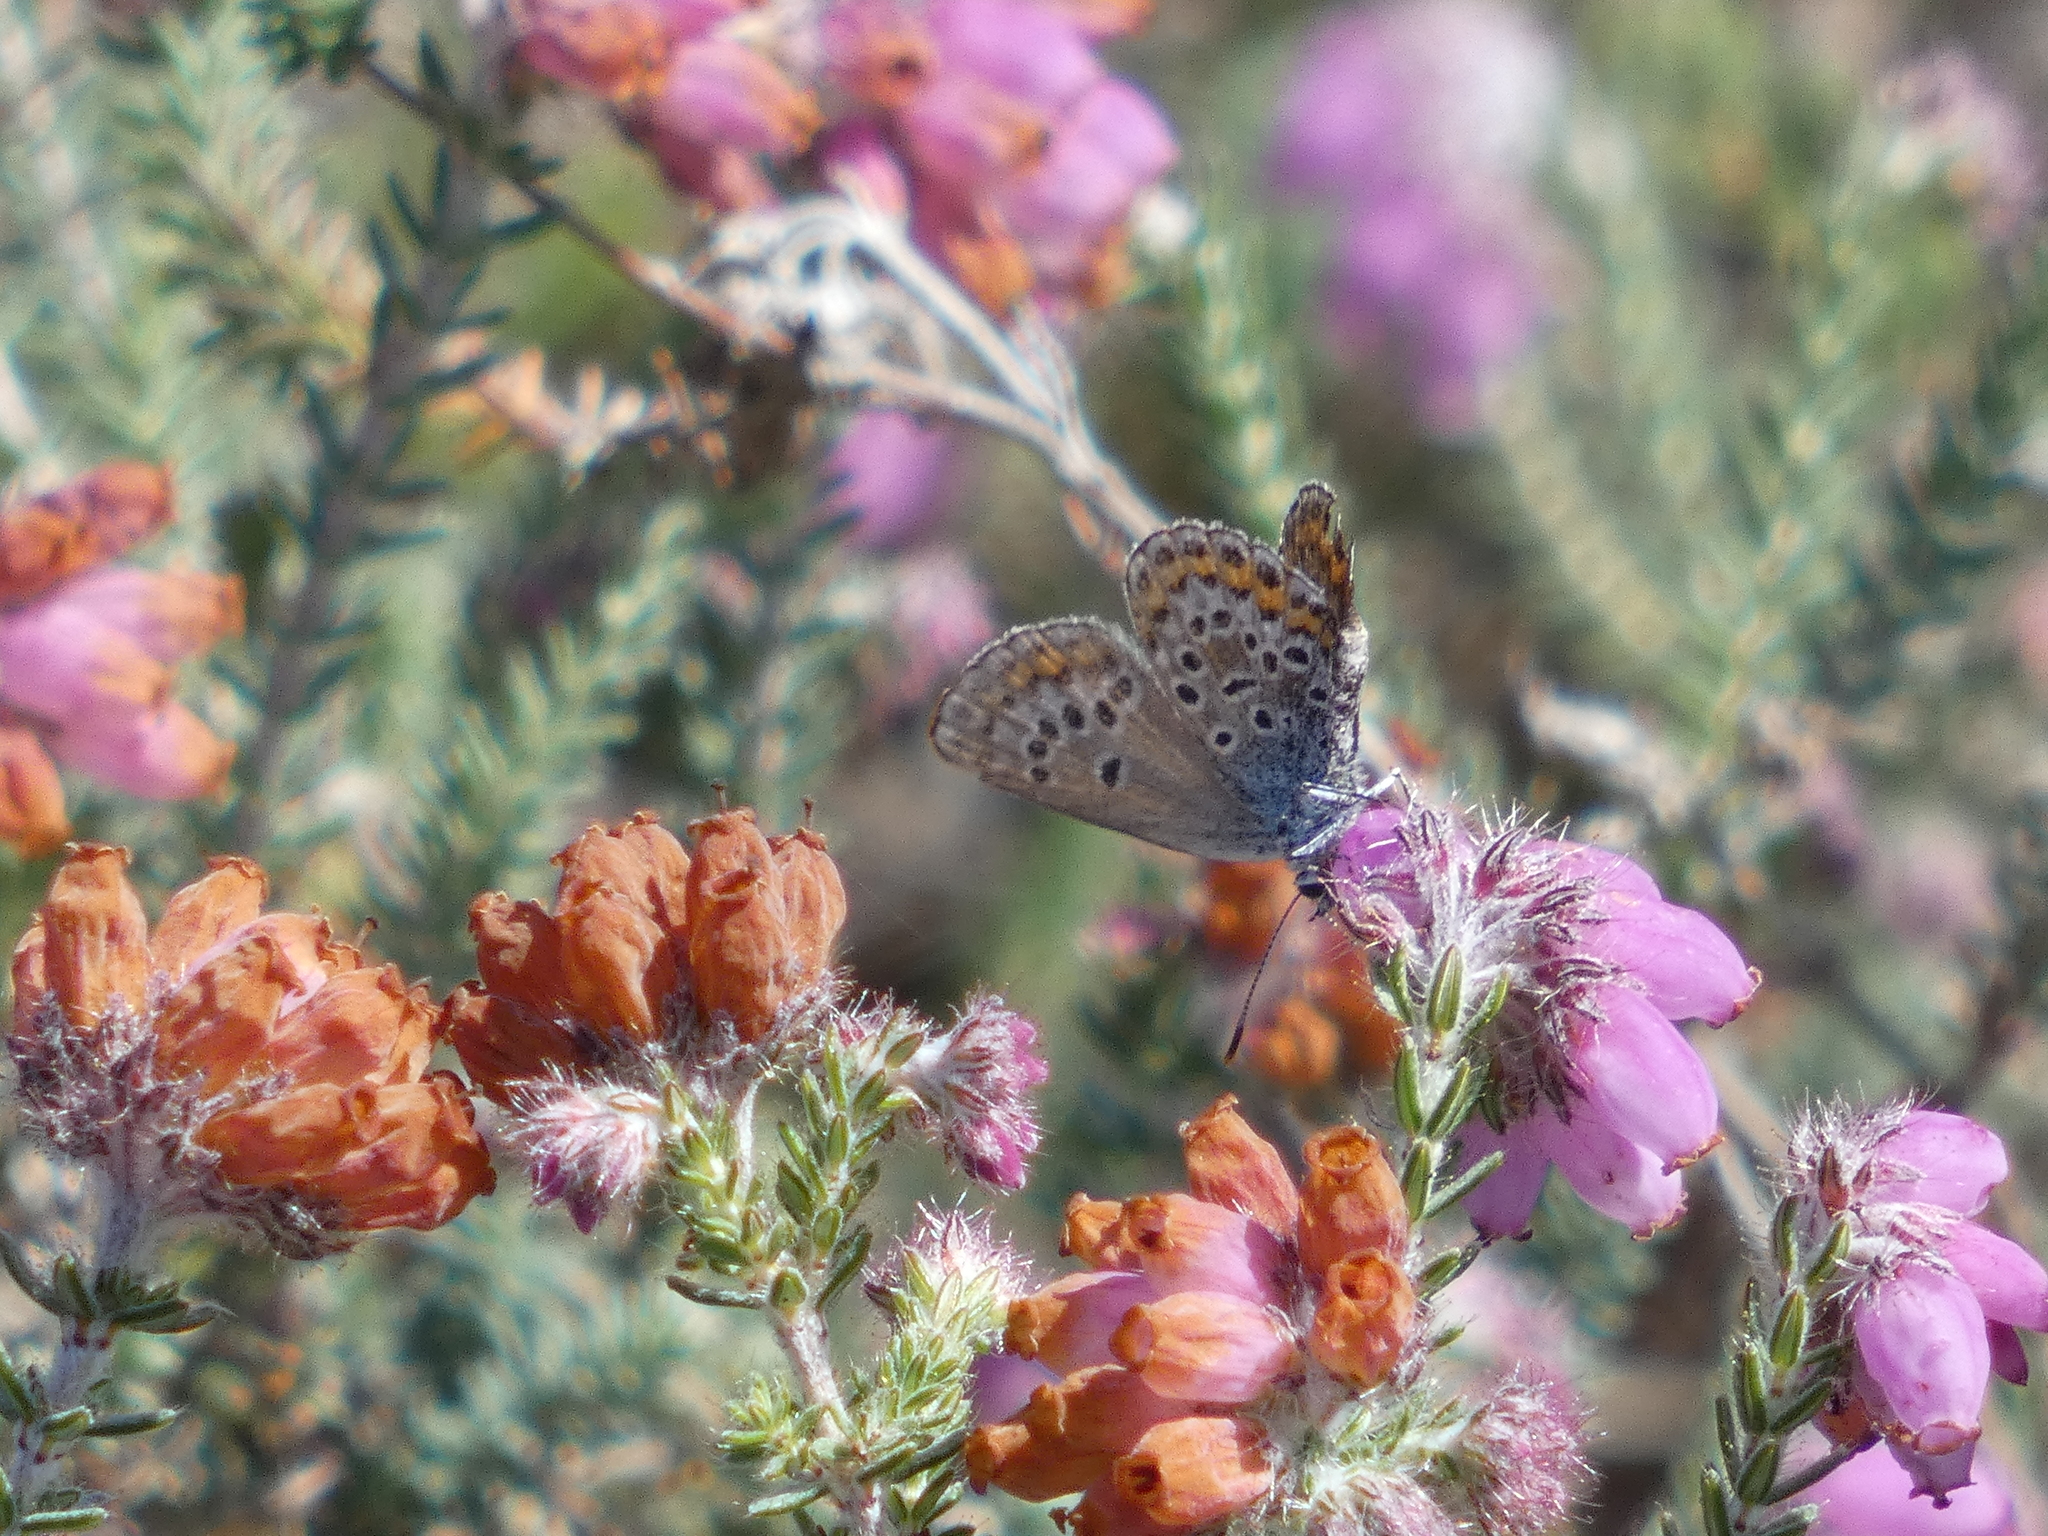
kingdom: Animalia
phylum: Arthropoda
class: Insecta
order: Lepidoptera
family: Lycaenidae
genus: Plebejus
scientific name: Plebejus argus
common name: Silver-studded blue
